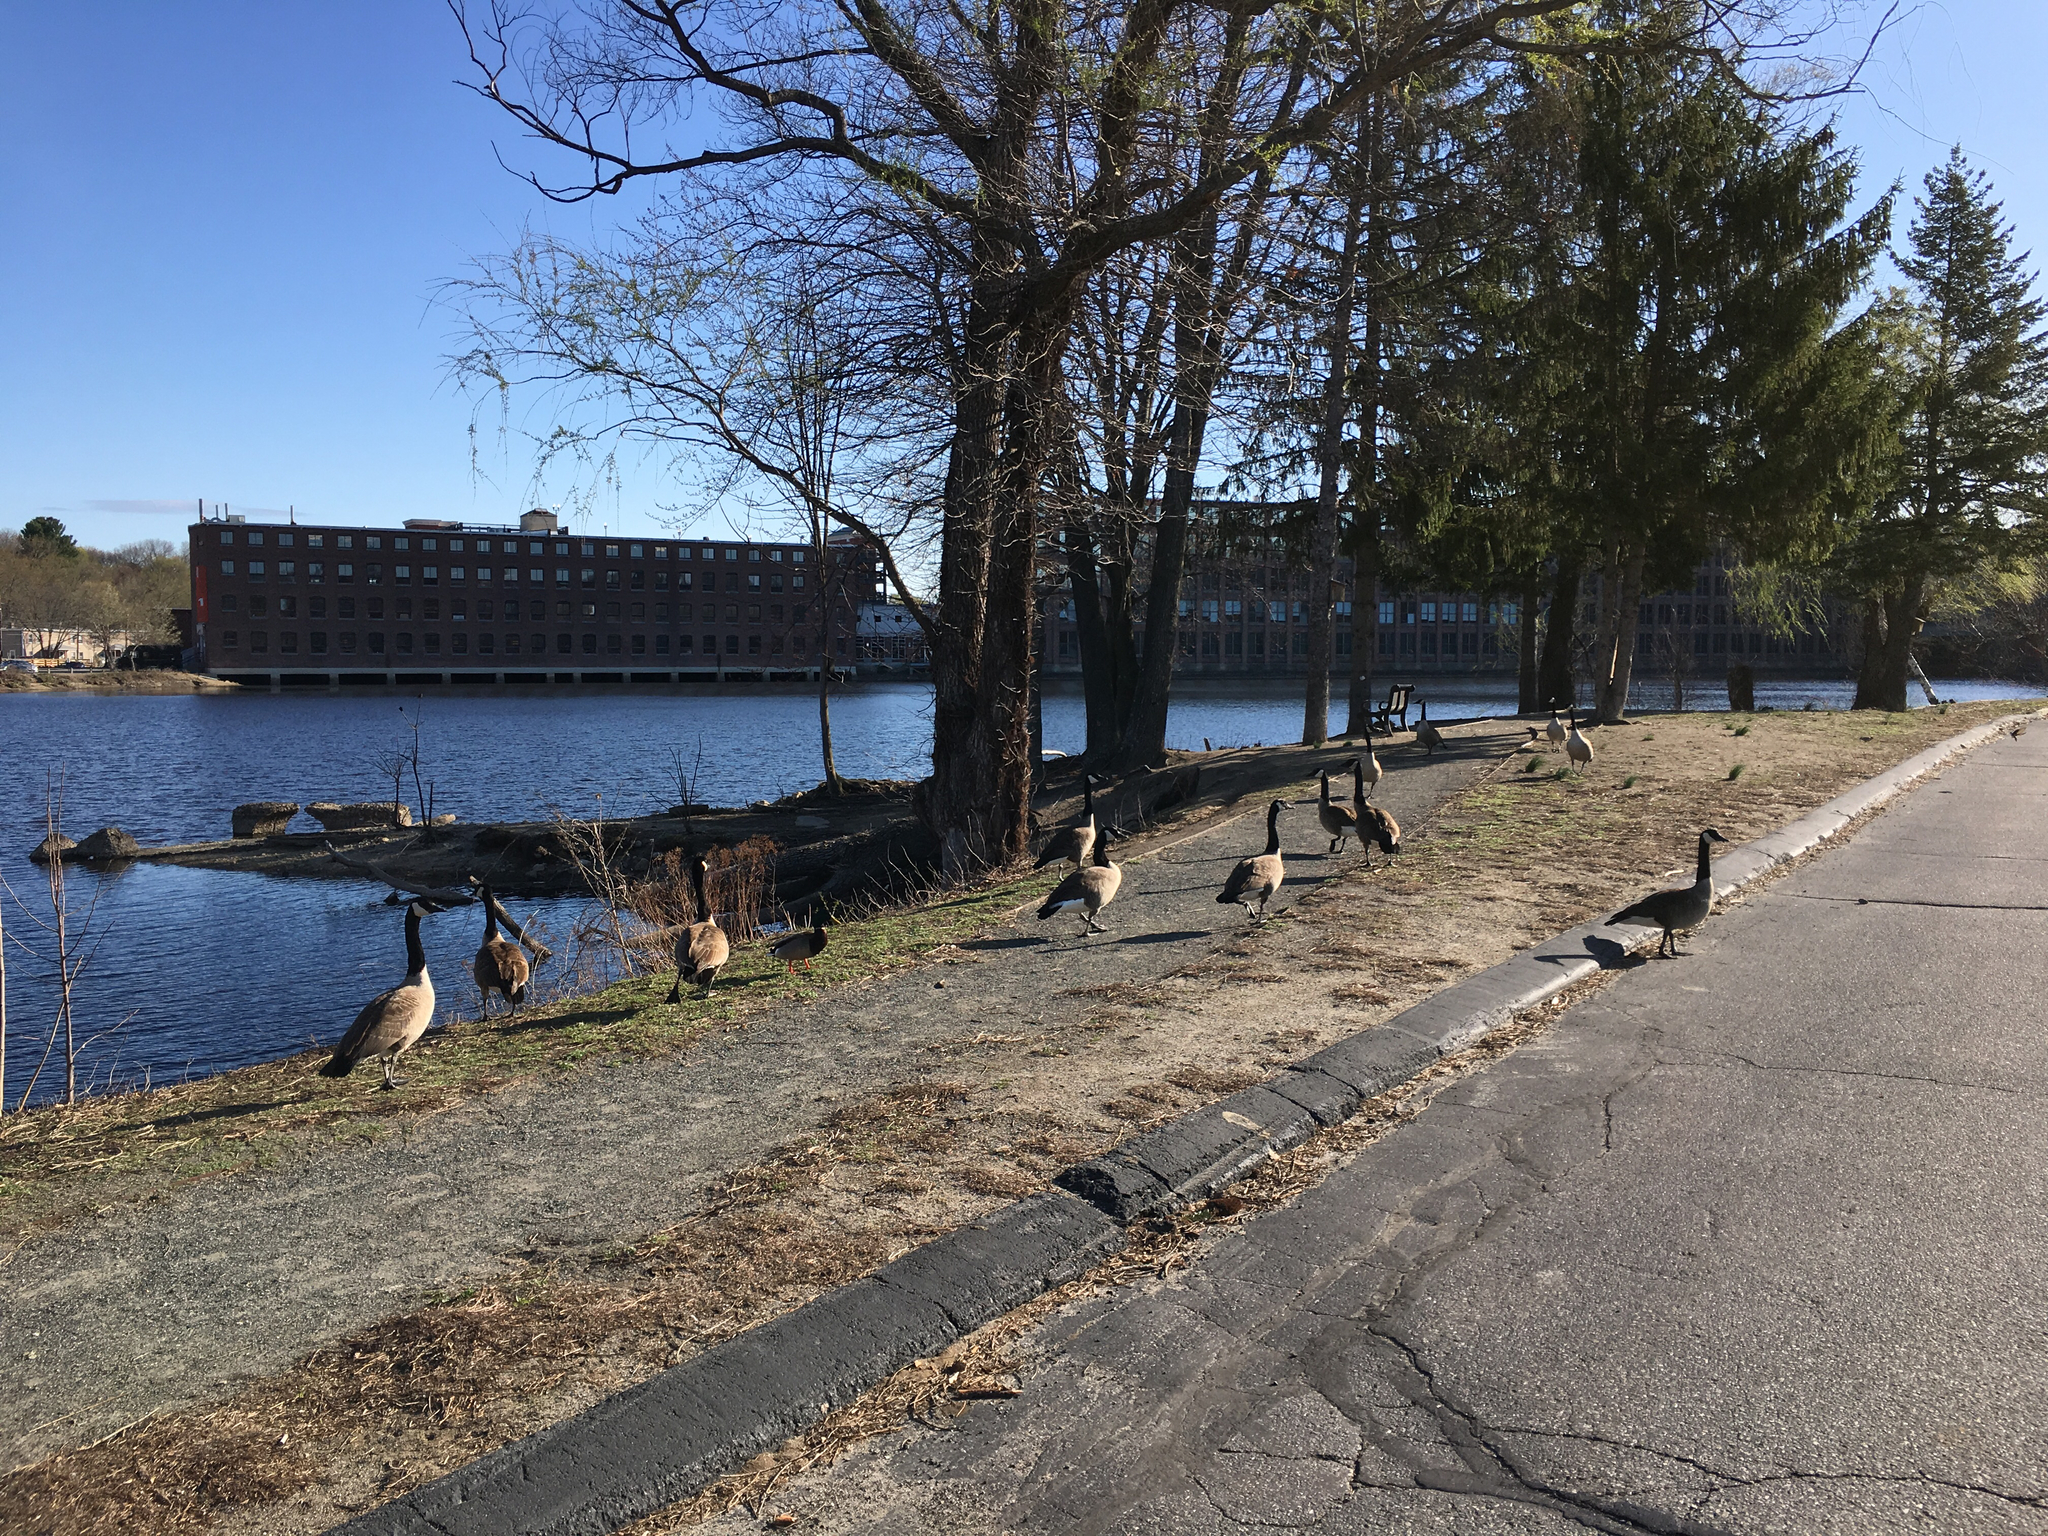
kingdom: Animalia
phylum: Chordata
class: Aves
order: Anseriformes
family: Anatidae
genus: Branta
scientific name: Branta canadensis
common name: Canada goose
